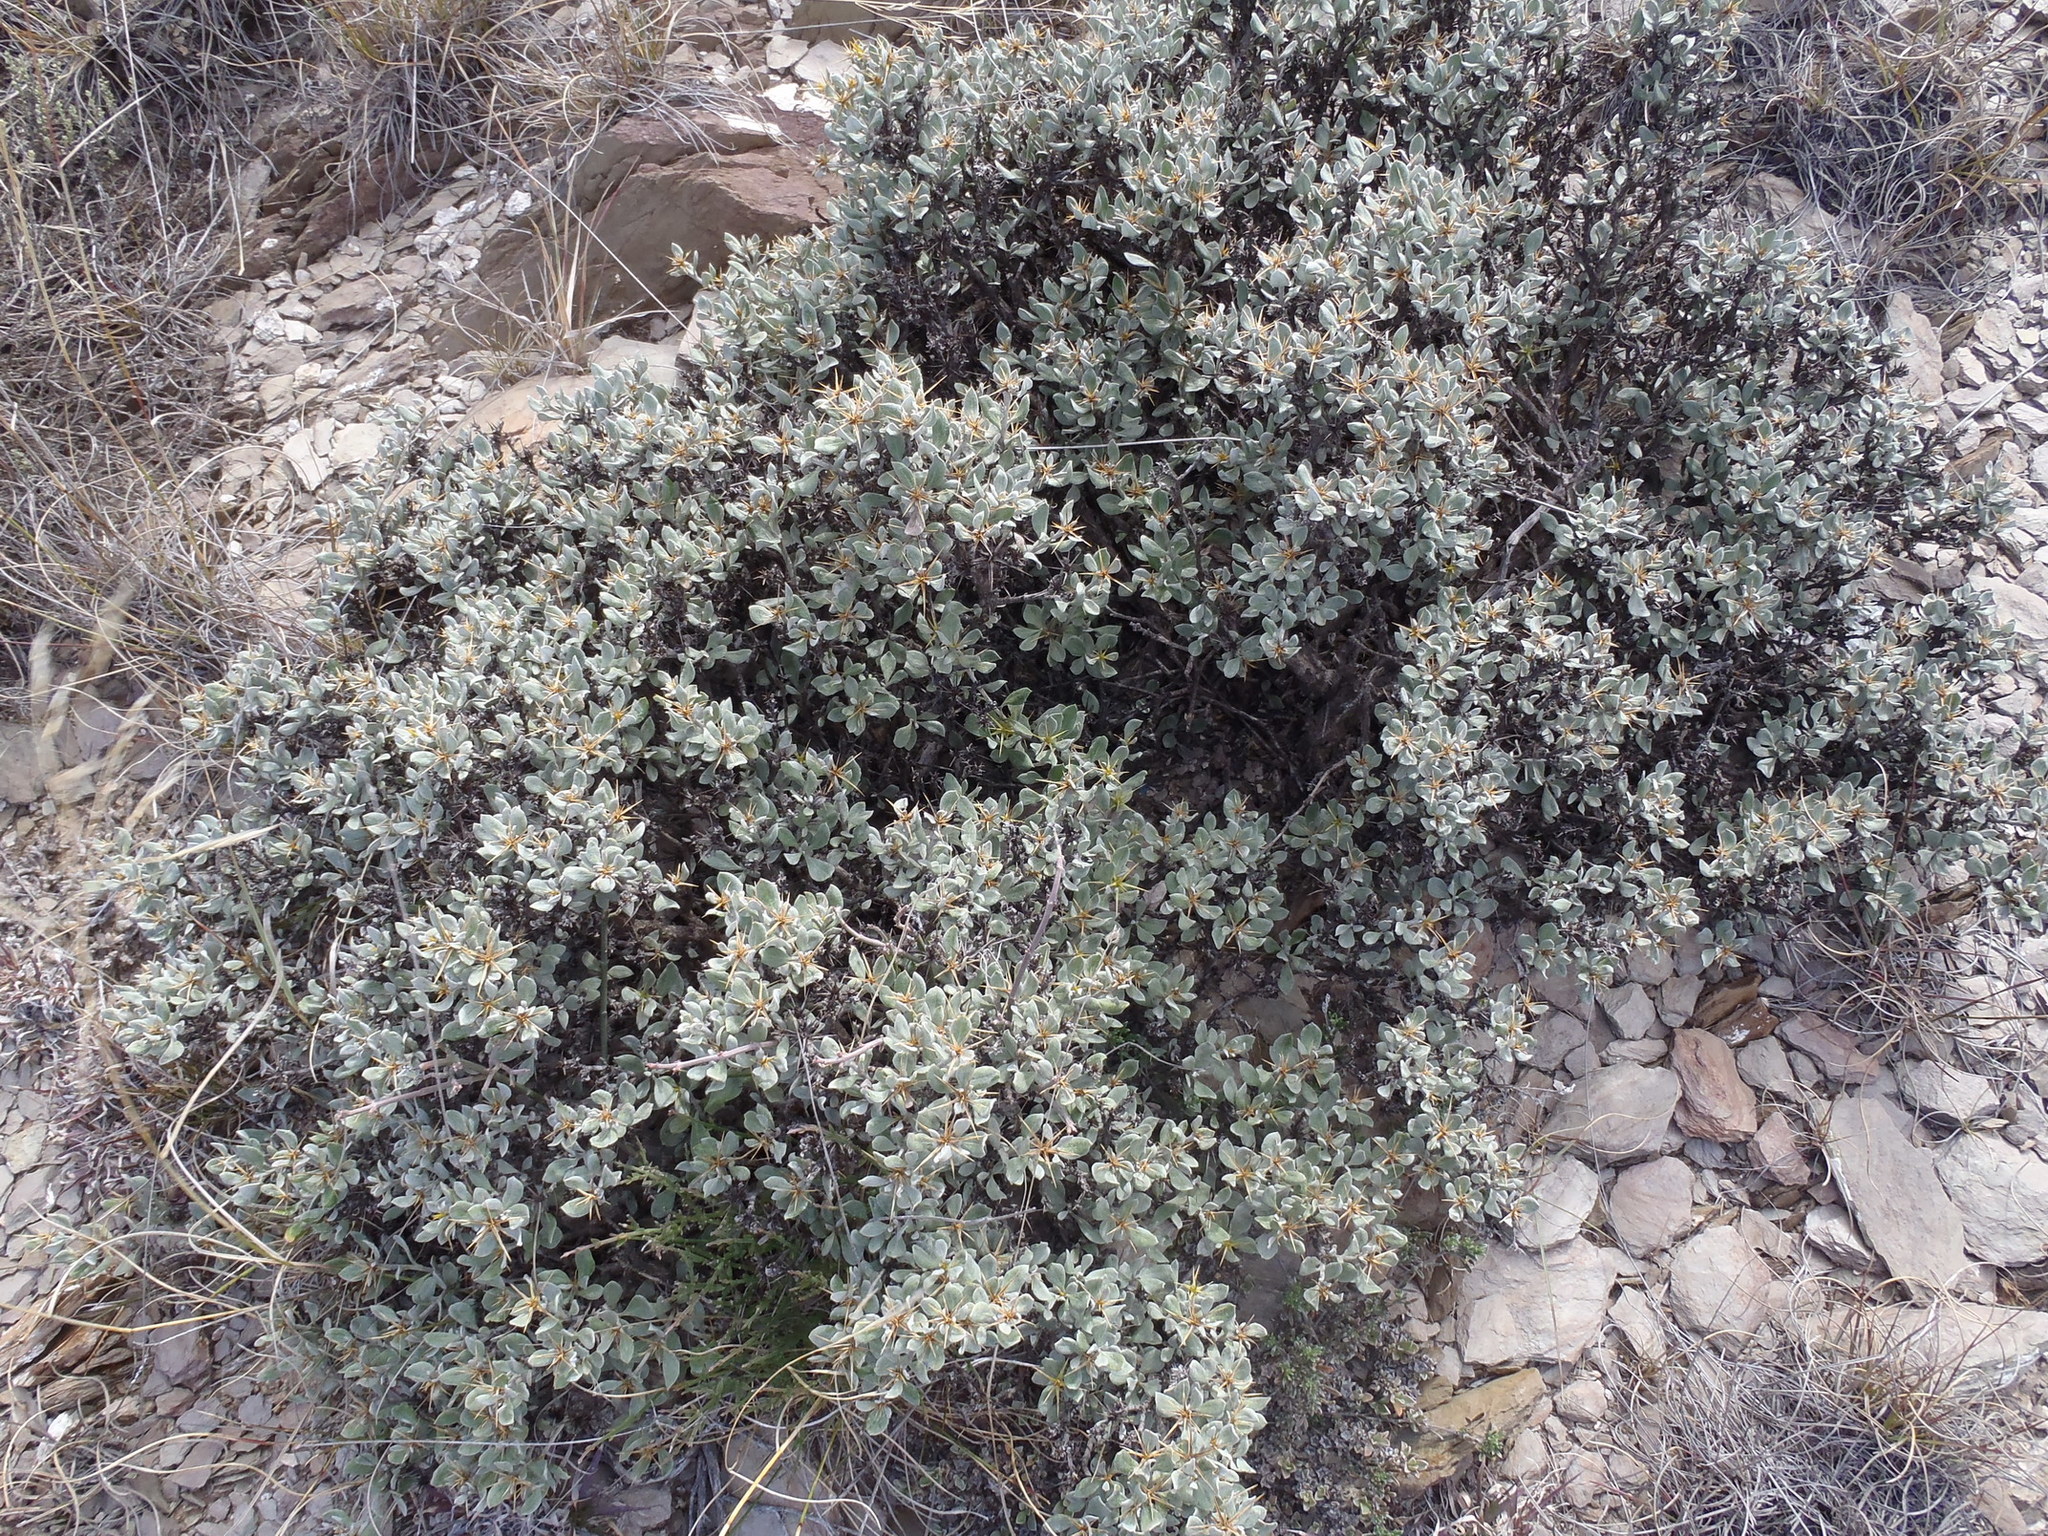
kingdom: Plantae
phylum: Tracheophyta
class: Magnoliopsida
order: Asterales
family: Asteraceae
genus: Macledium
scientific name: Macledium spinosum
